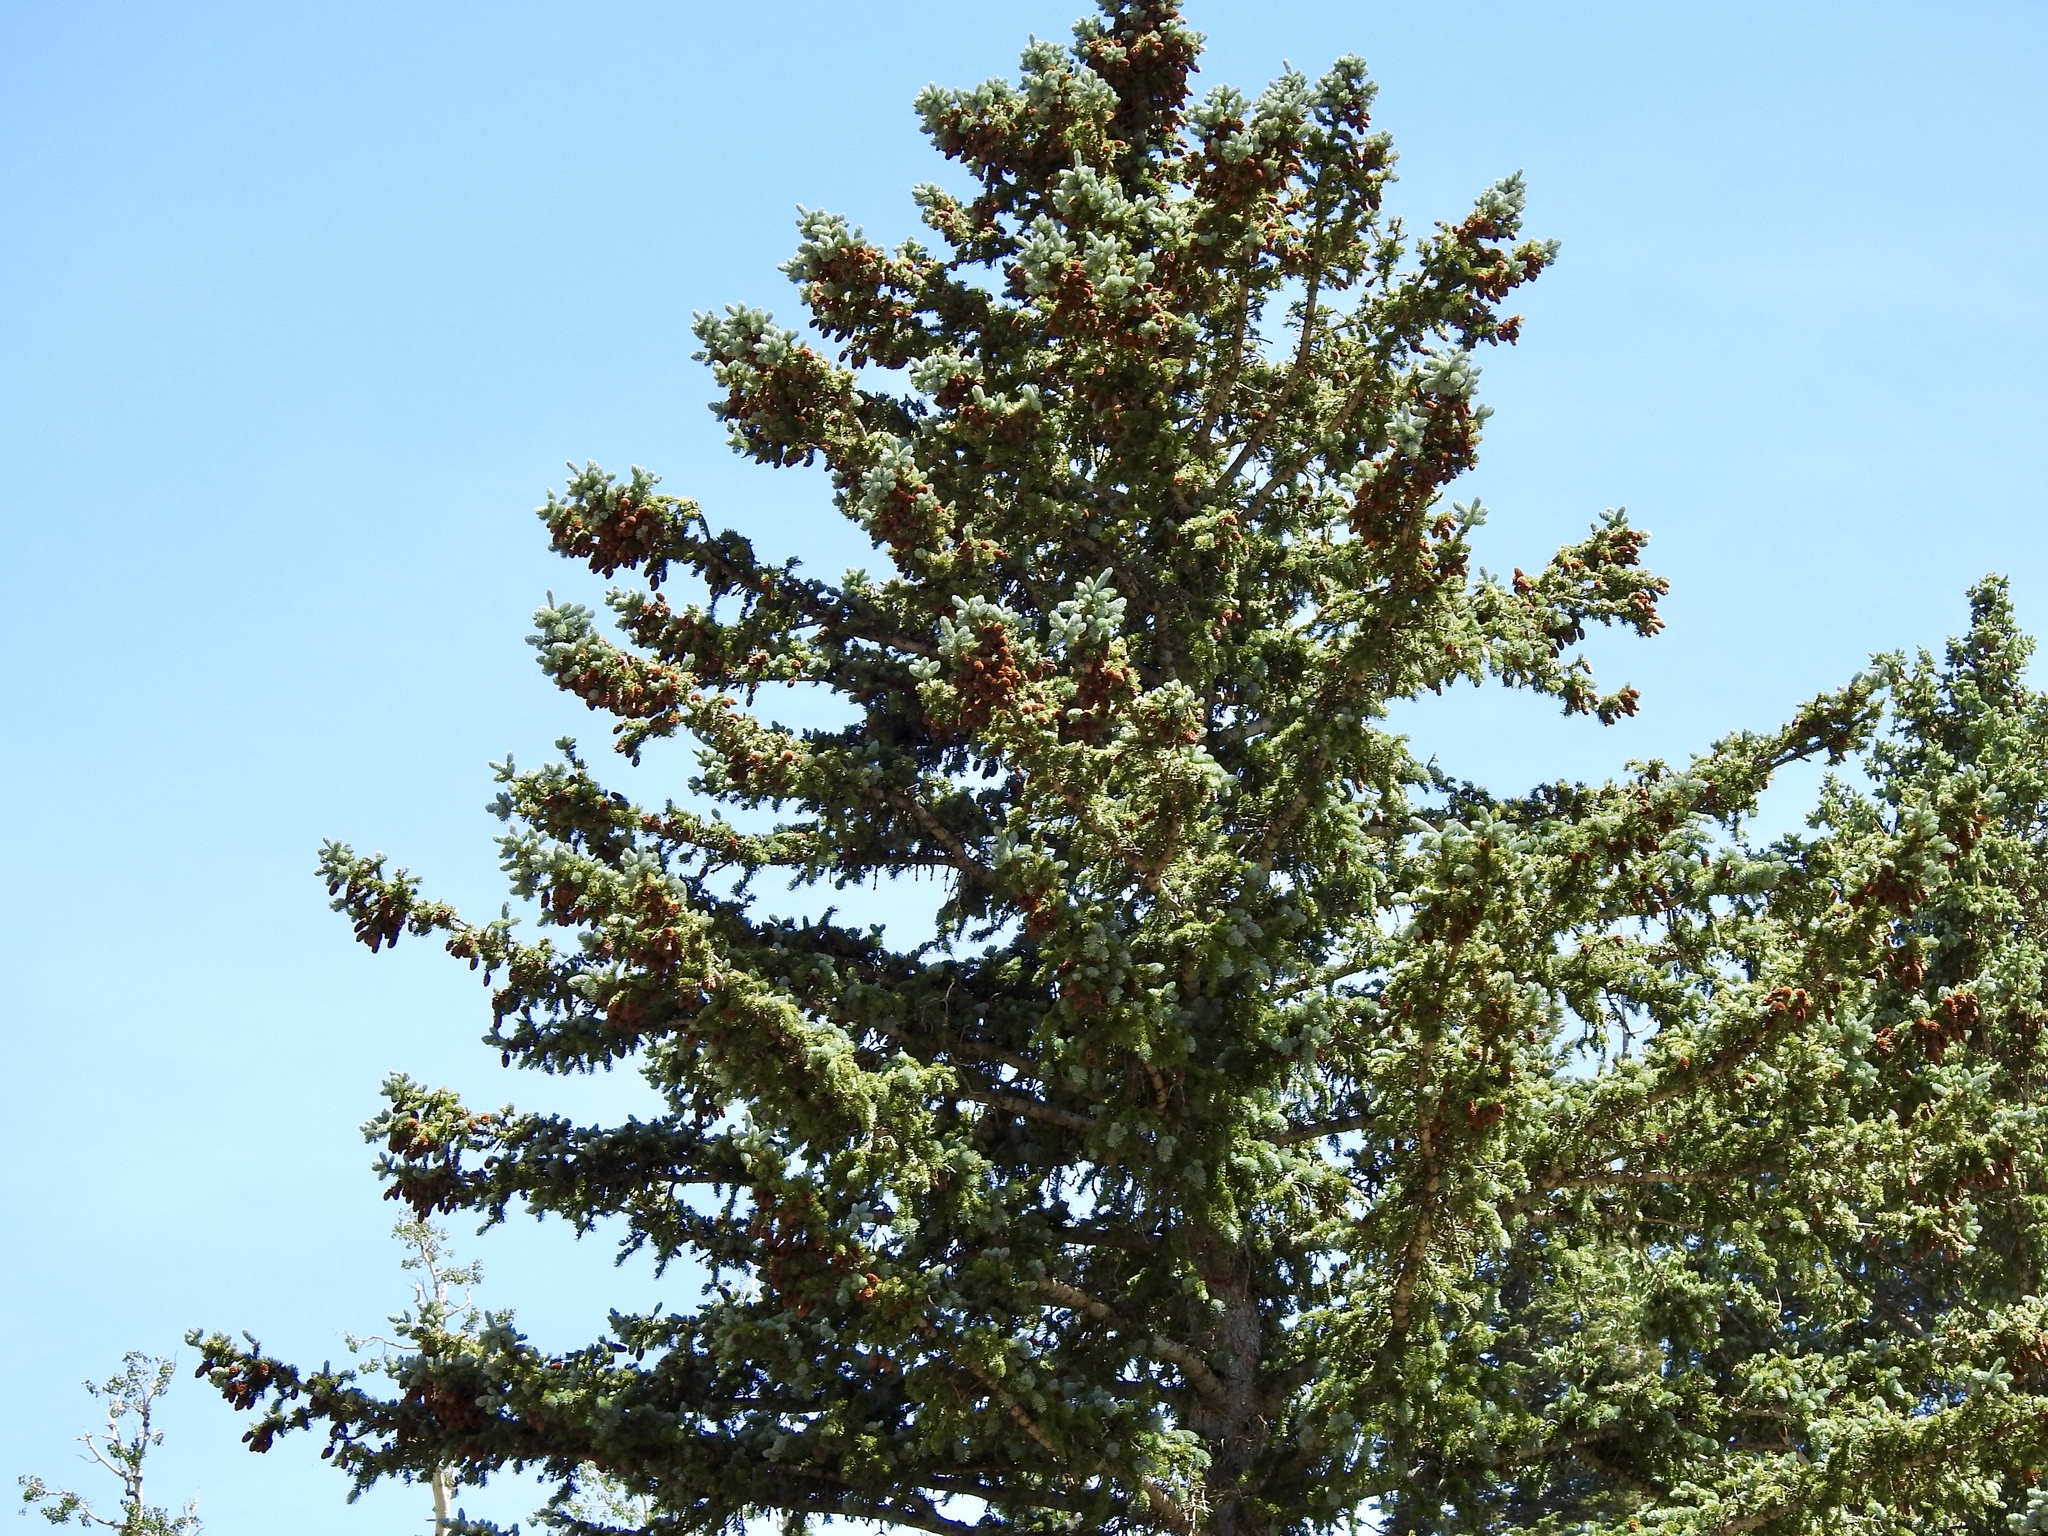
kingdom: Plantae
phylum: Tracheophyta
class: Pinopsida
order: Pinales
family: Pinaceae
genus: Picea
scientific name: Picea engelmannii
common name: Engelmann spruce
